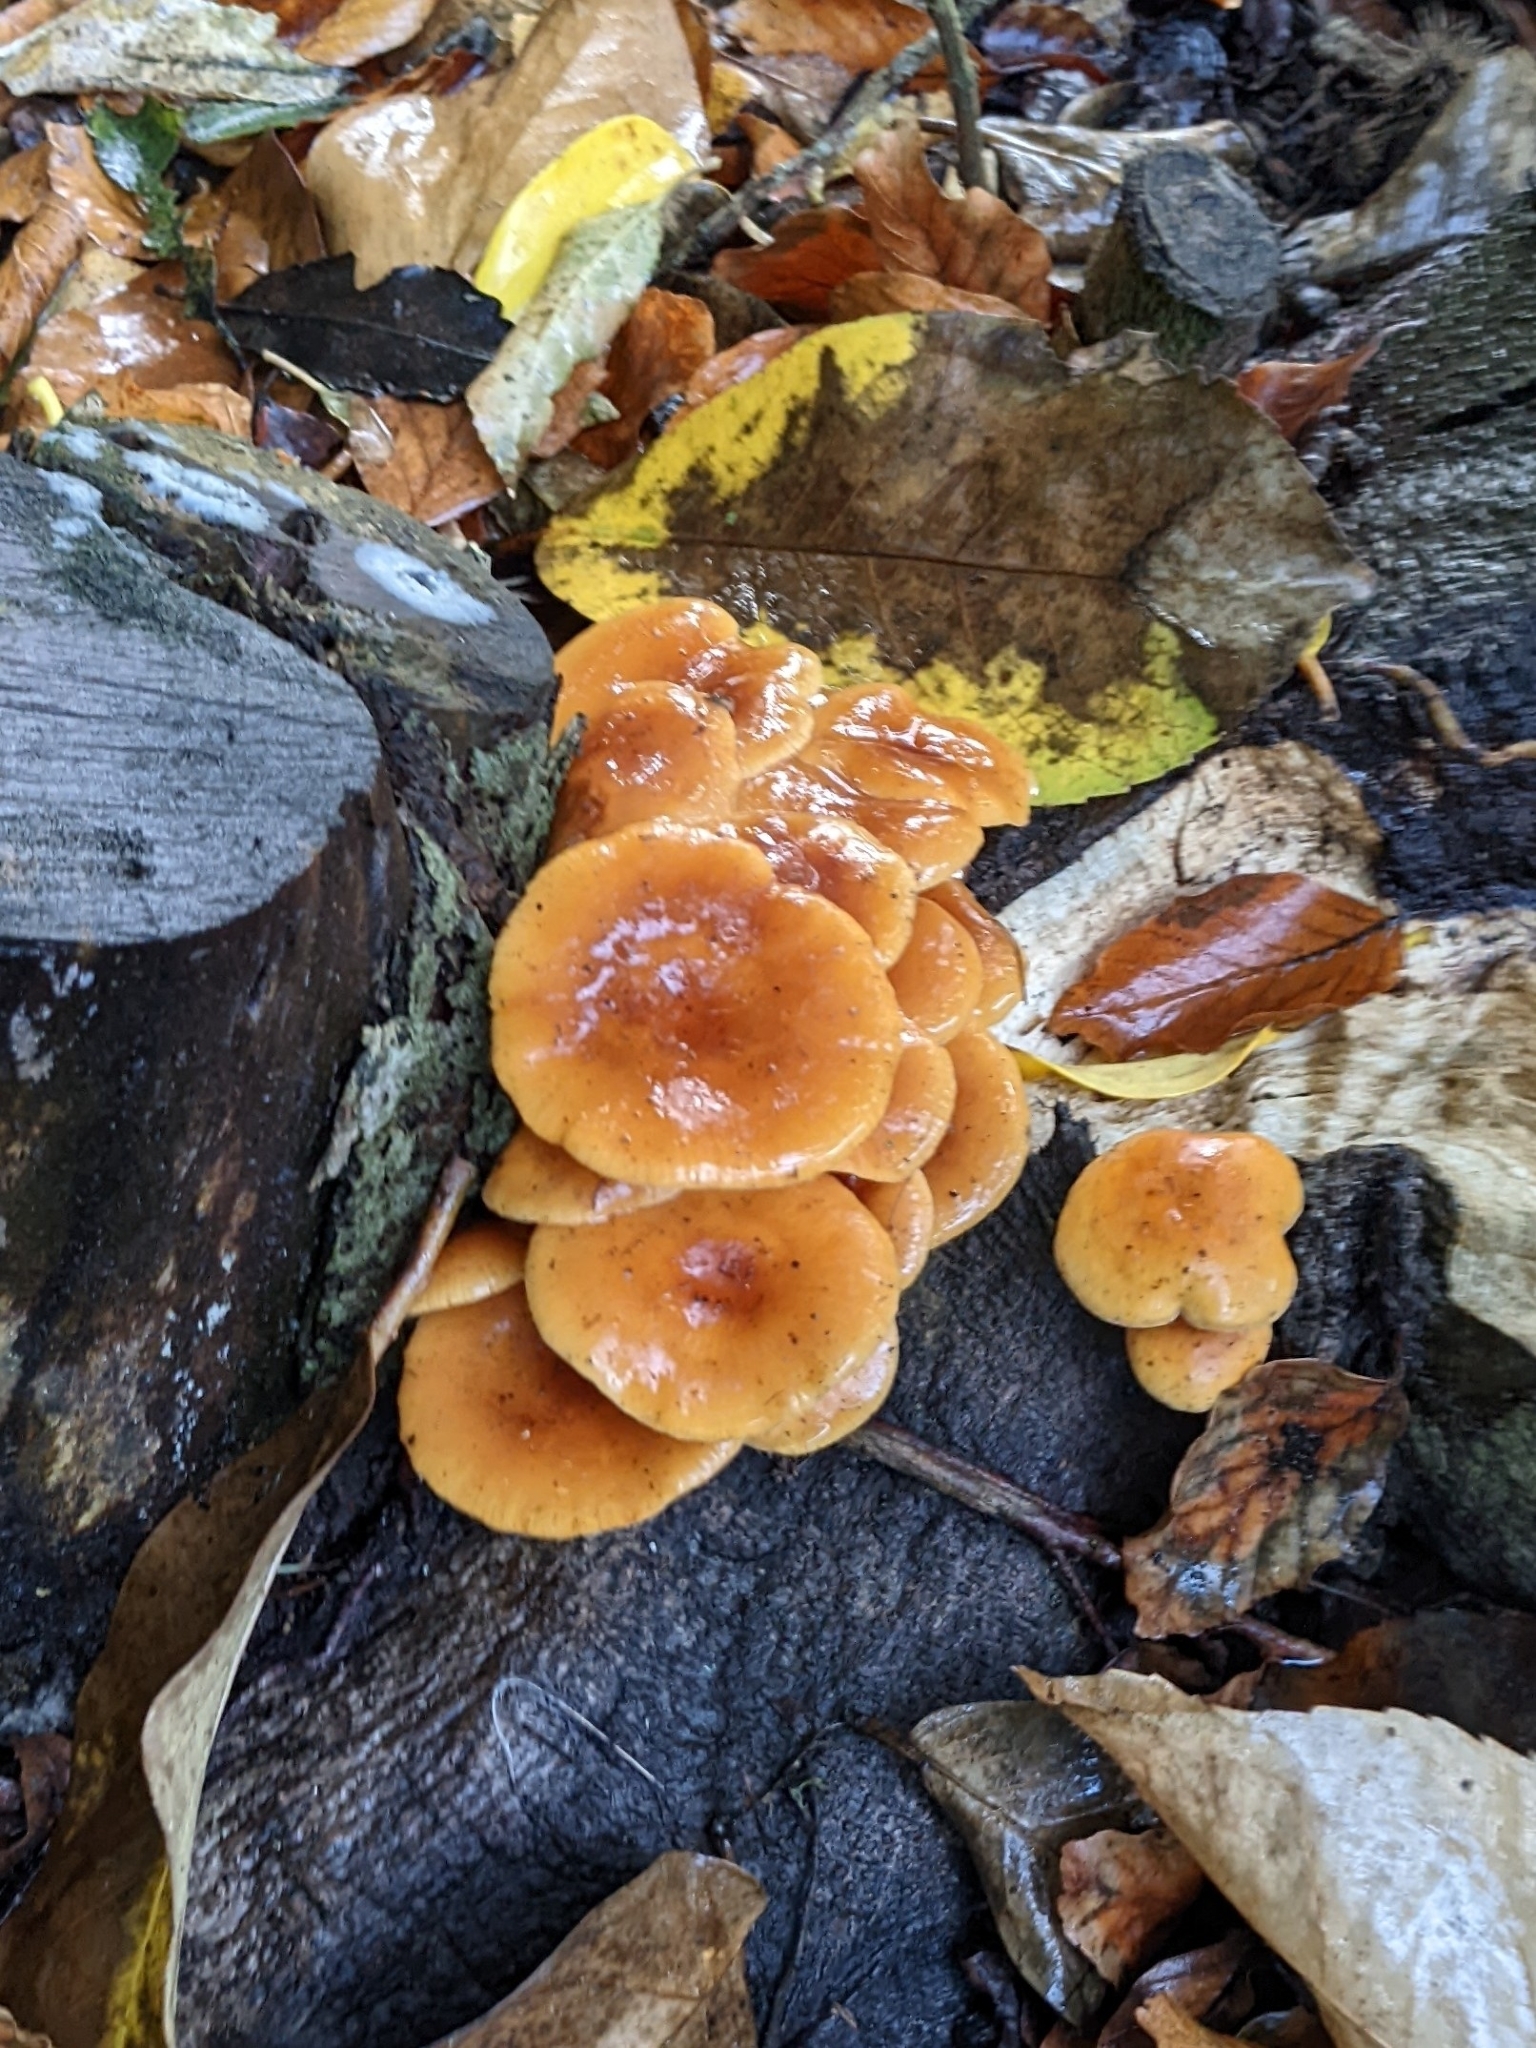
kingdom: Fungi
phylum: Basidiomycota
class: Agaricomycetes
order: Agaricales
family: Physalacriaceae
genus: Flammulina
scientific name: Flammulina velutipes
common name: Velvet shank
